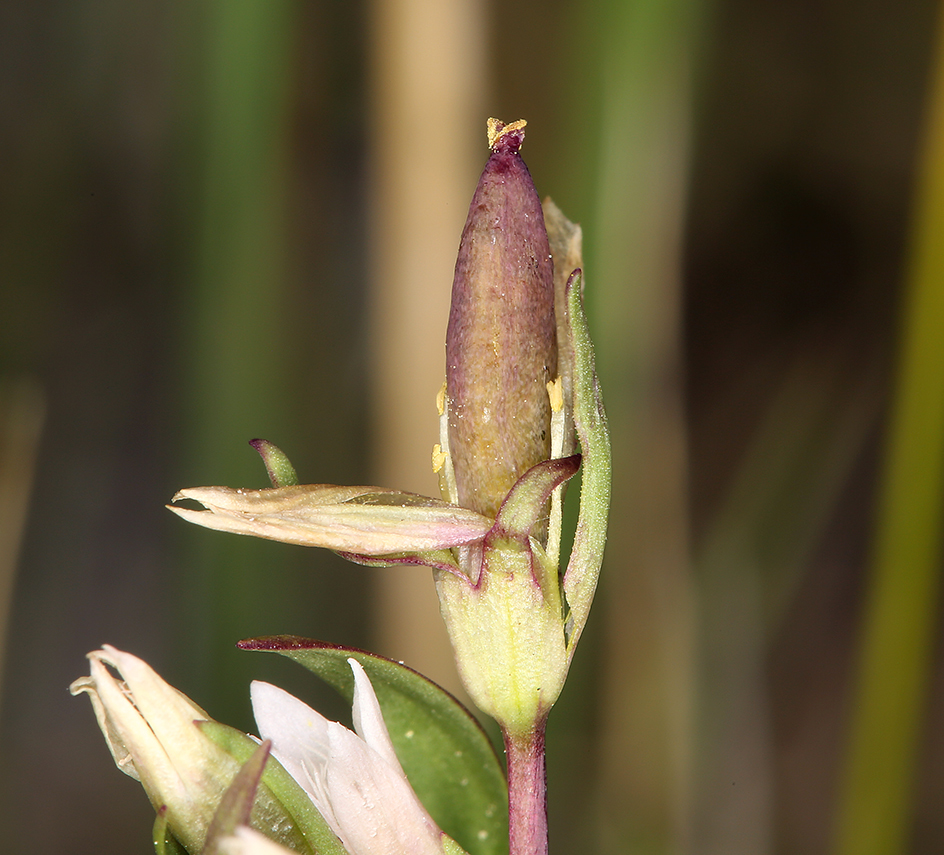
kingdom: Plantae
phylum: Tracheophyta
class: Magnoliopsida
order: Gentianales
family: Gentianaceae
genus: Gentianella
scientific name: Gentianella amarella
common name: Autumn gentian
